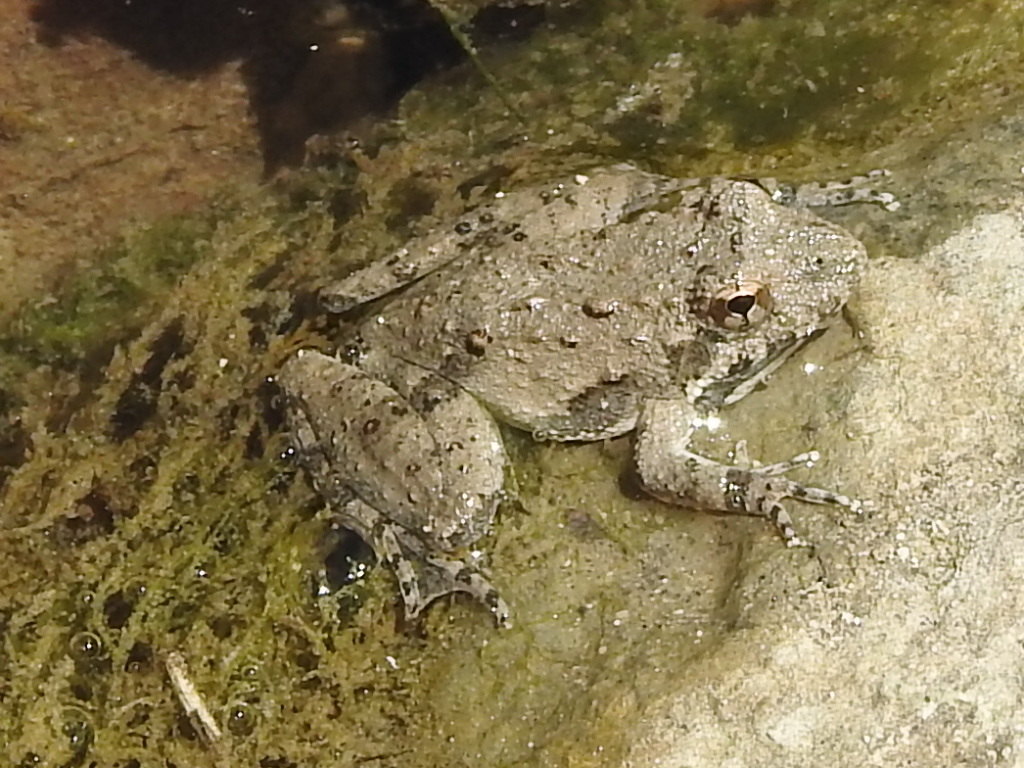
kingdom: Animalia
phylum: Chordata
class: Amphibia
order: Anura
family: Hylidae
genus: Acris
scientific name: Acris blanchardi
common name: Blanchard's cricket frog
